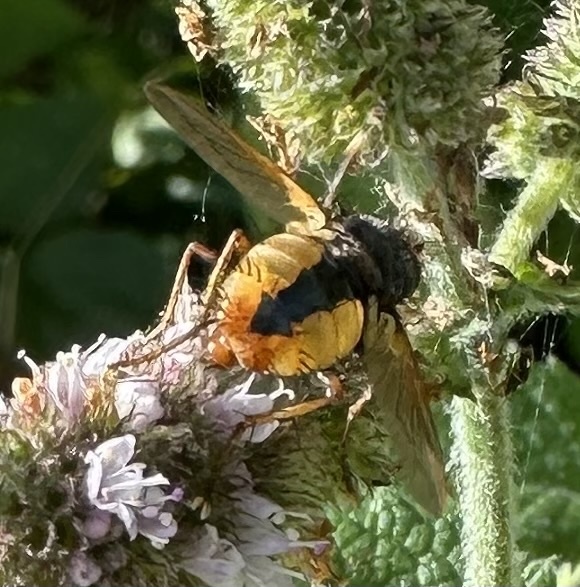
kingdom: Animalia
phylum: Arthropoda
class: Insecta
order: Diptera
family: Tachinidae
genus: Tachina
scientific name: Tachina fera
